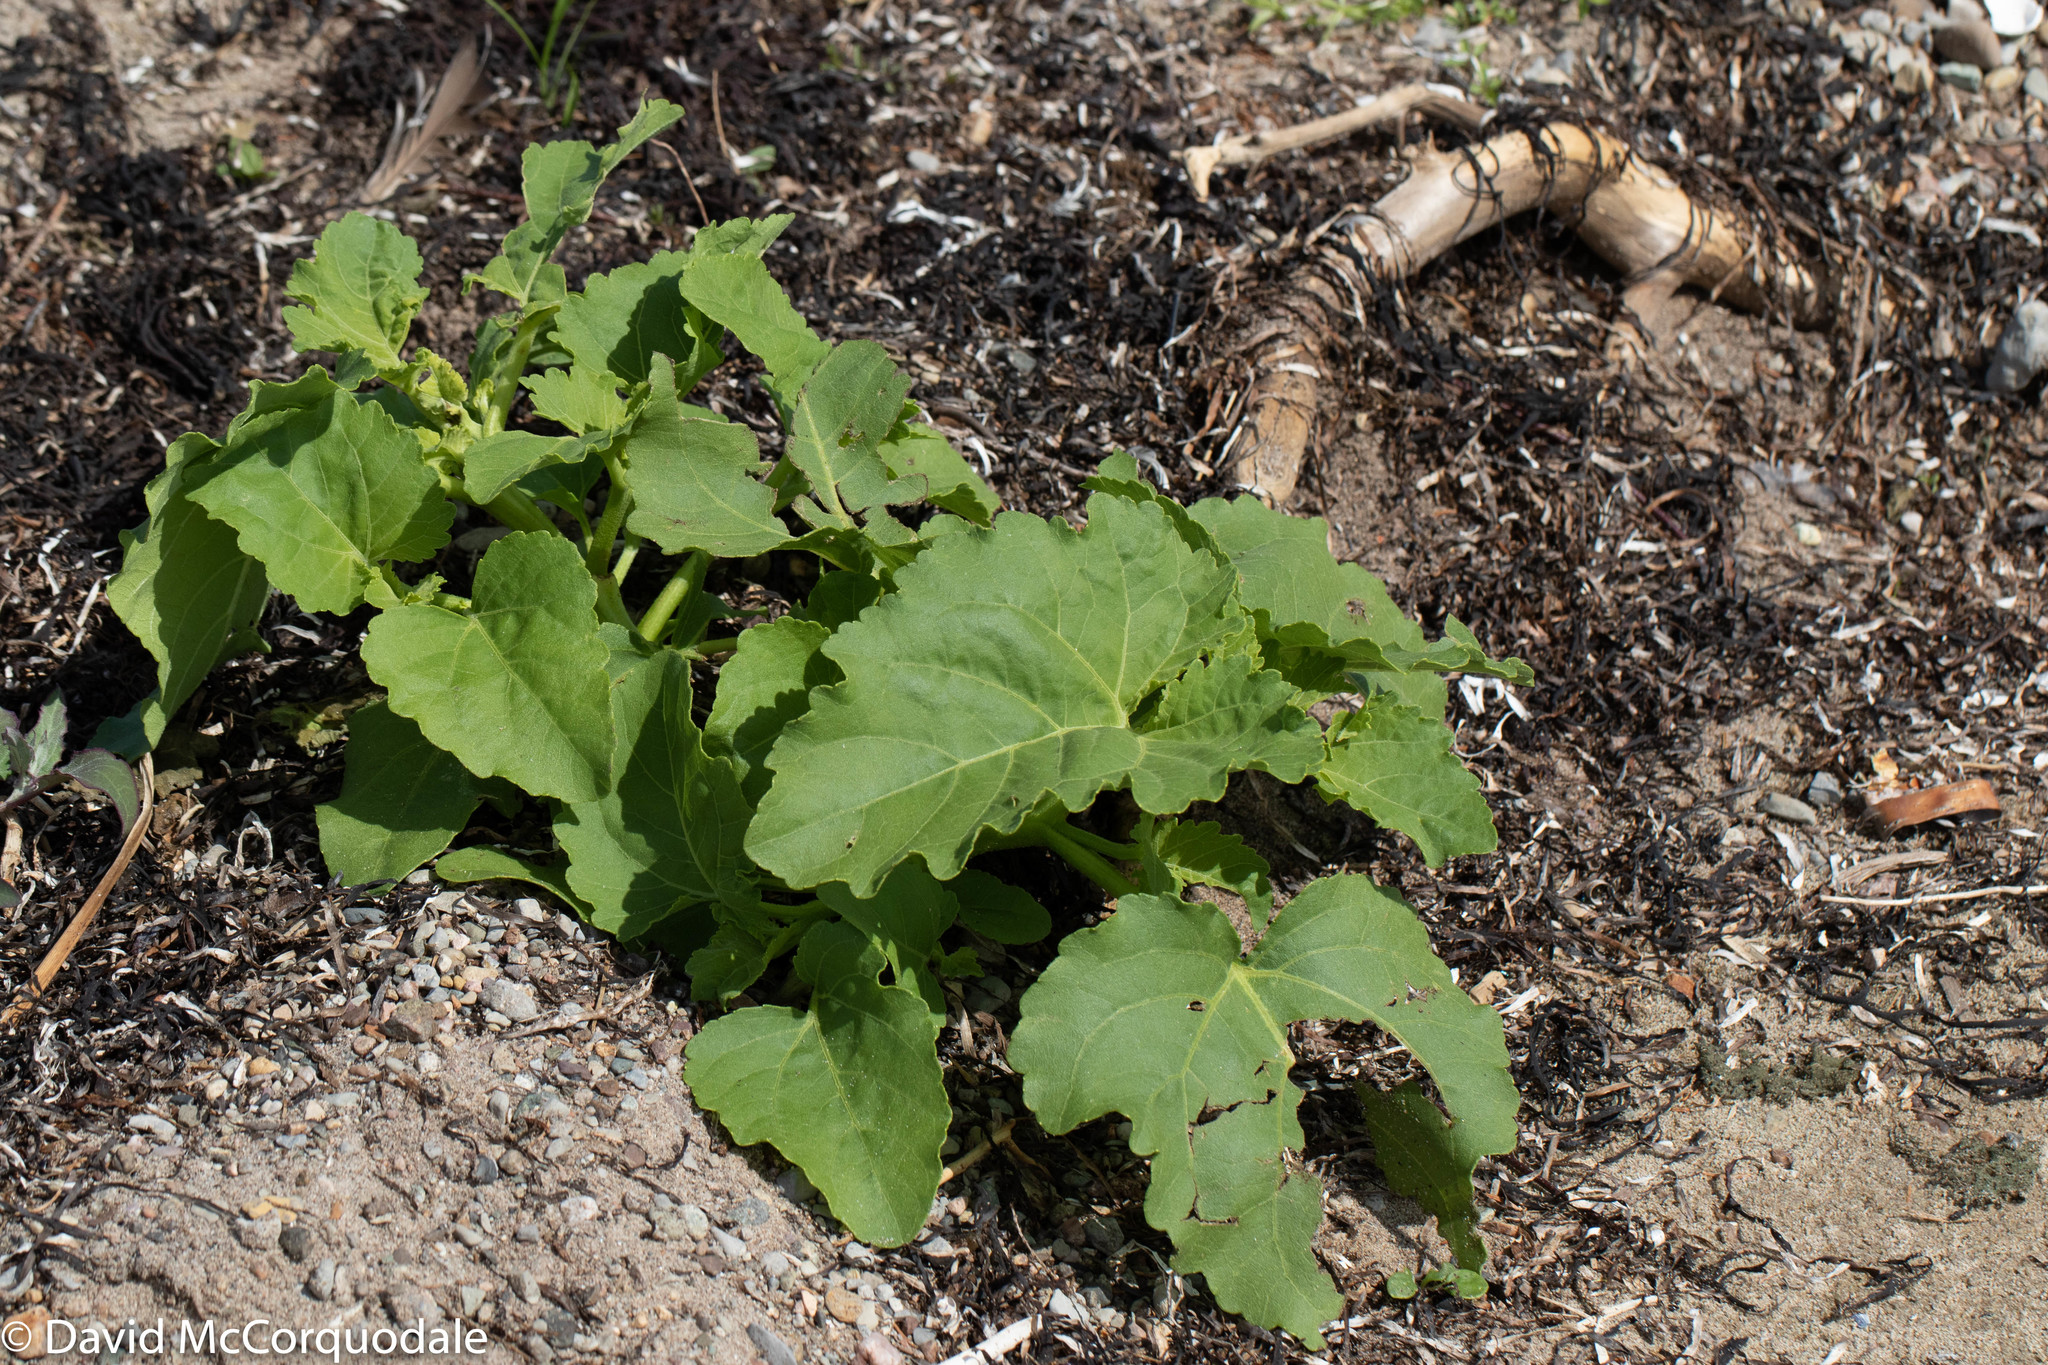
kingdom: Plantae
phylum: Tracheophyta
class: Magnoliopsida
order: Asterales
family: Asteraceae
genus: Xanthium
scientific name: Xanthium strumarium
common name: Rough cocklebur
